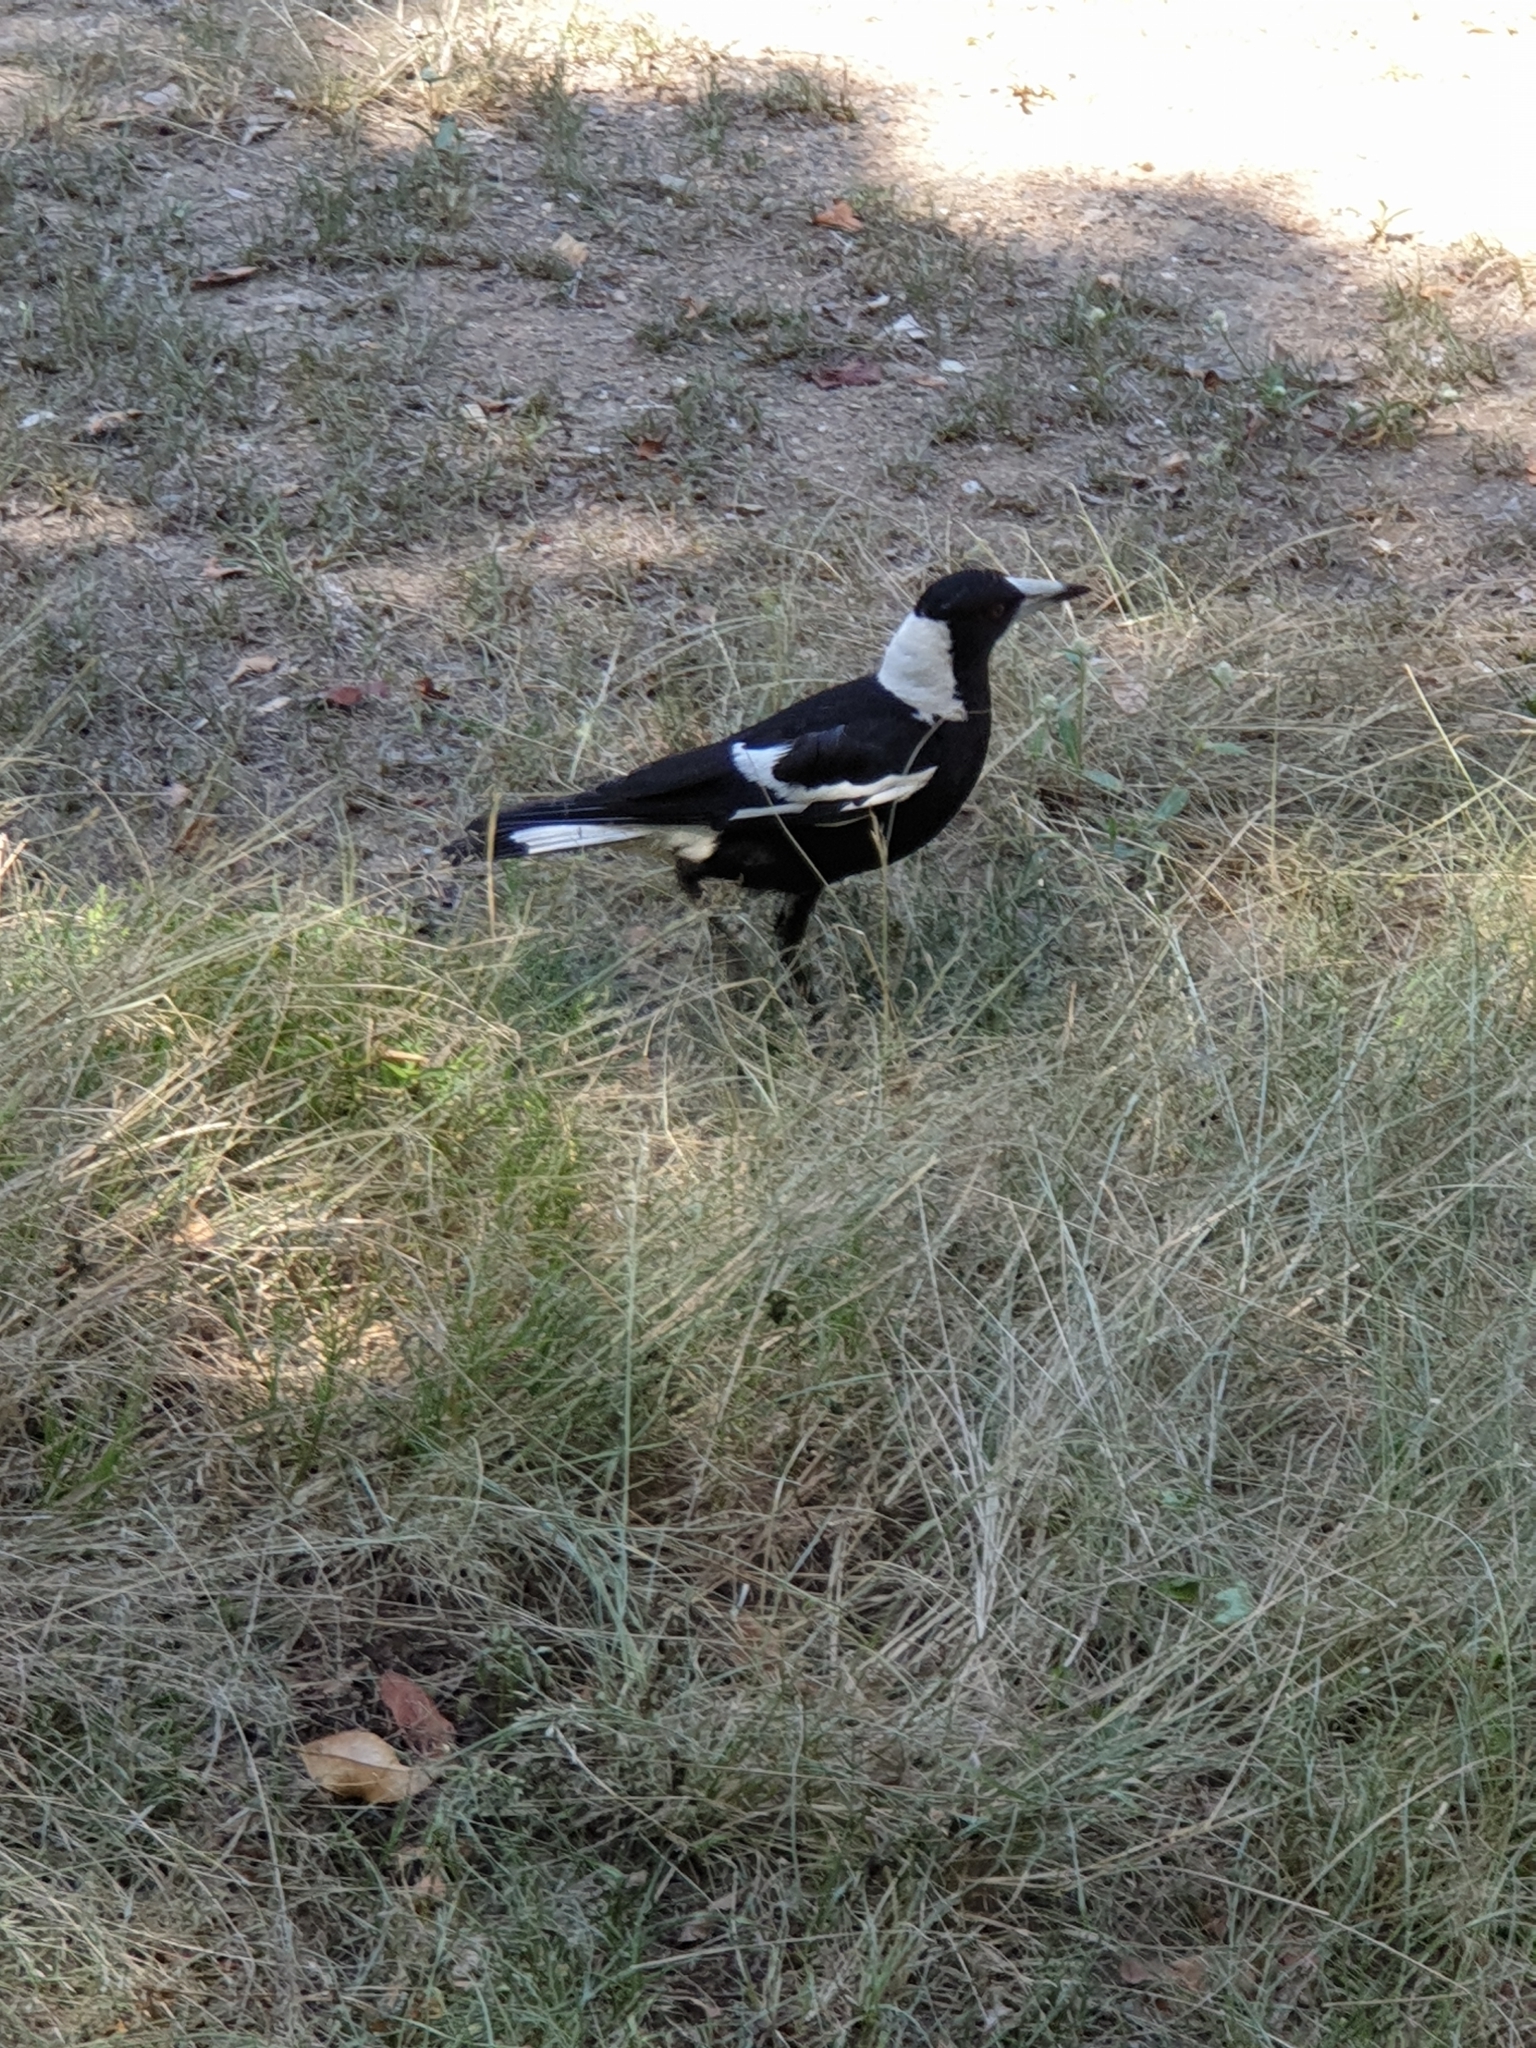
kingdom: Animalia
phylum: Chordata
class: Aves
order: Passeriformes
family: Cracticidae
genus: Gymnorhina
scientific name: Gymnorhina tibicen
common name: Australian magpie
